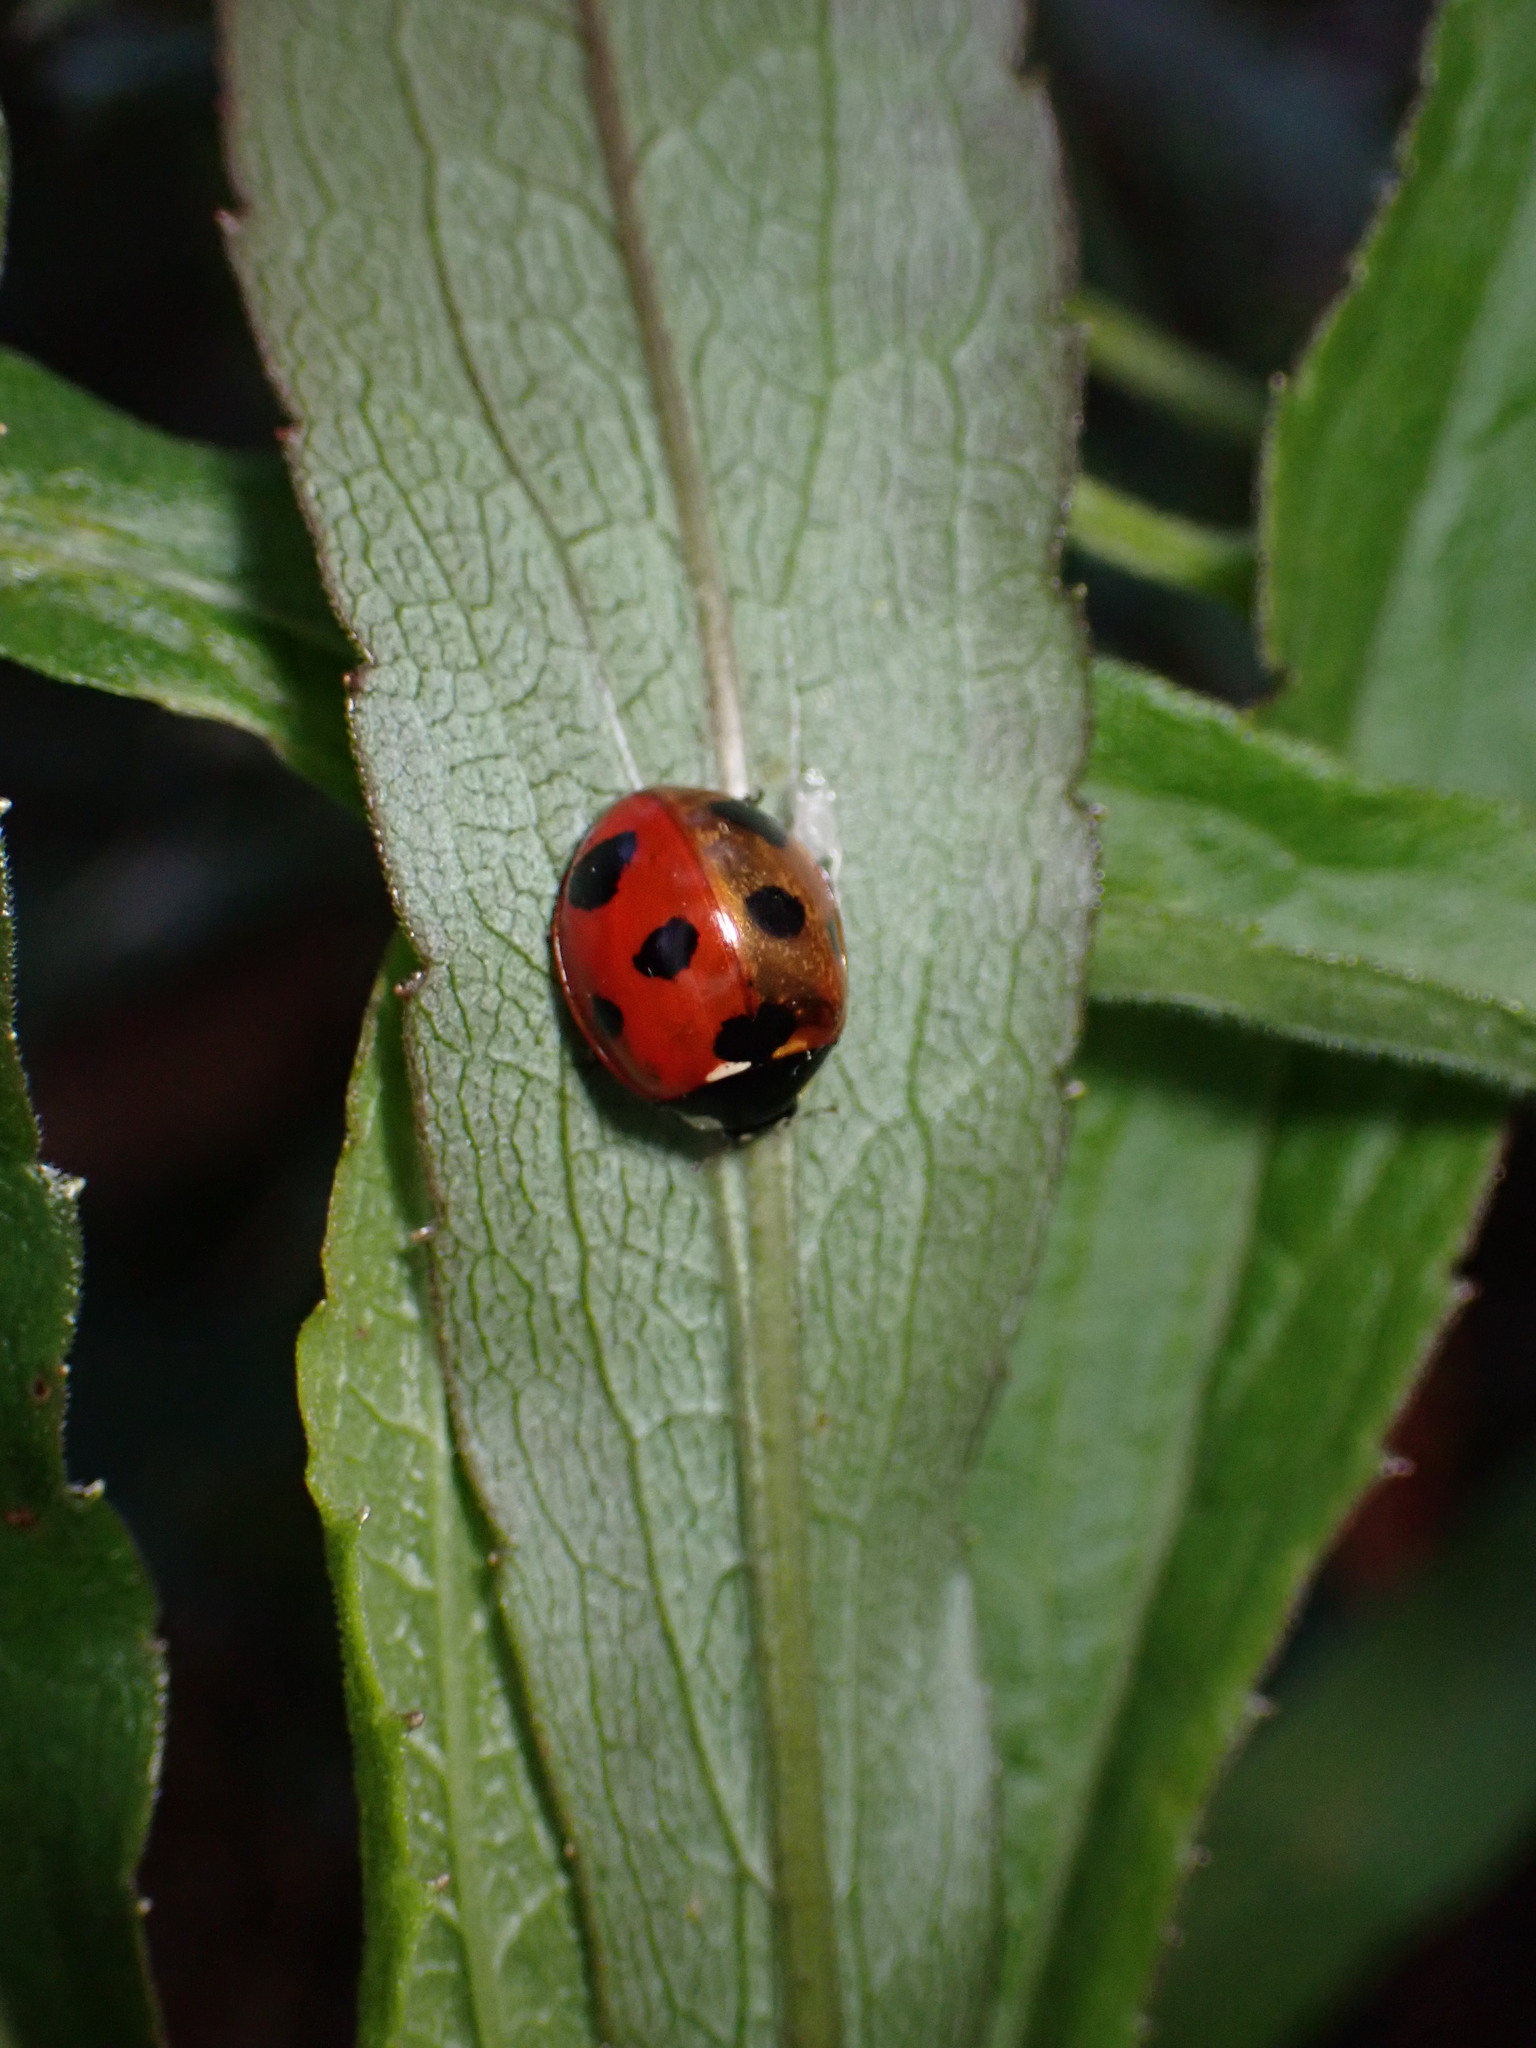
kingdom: Animalia
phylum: Arthropoda
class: Insecta
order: Coleoptera
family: Coccinellidae
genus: Coccinella
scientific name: Coccinella septempunctata
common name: Sevenspotted lady beetle
